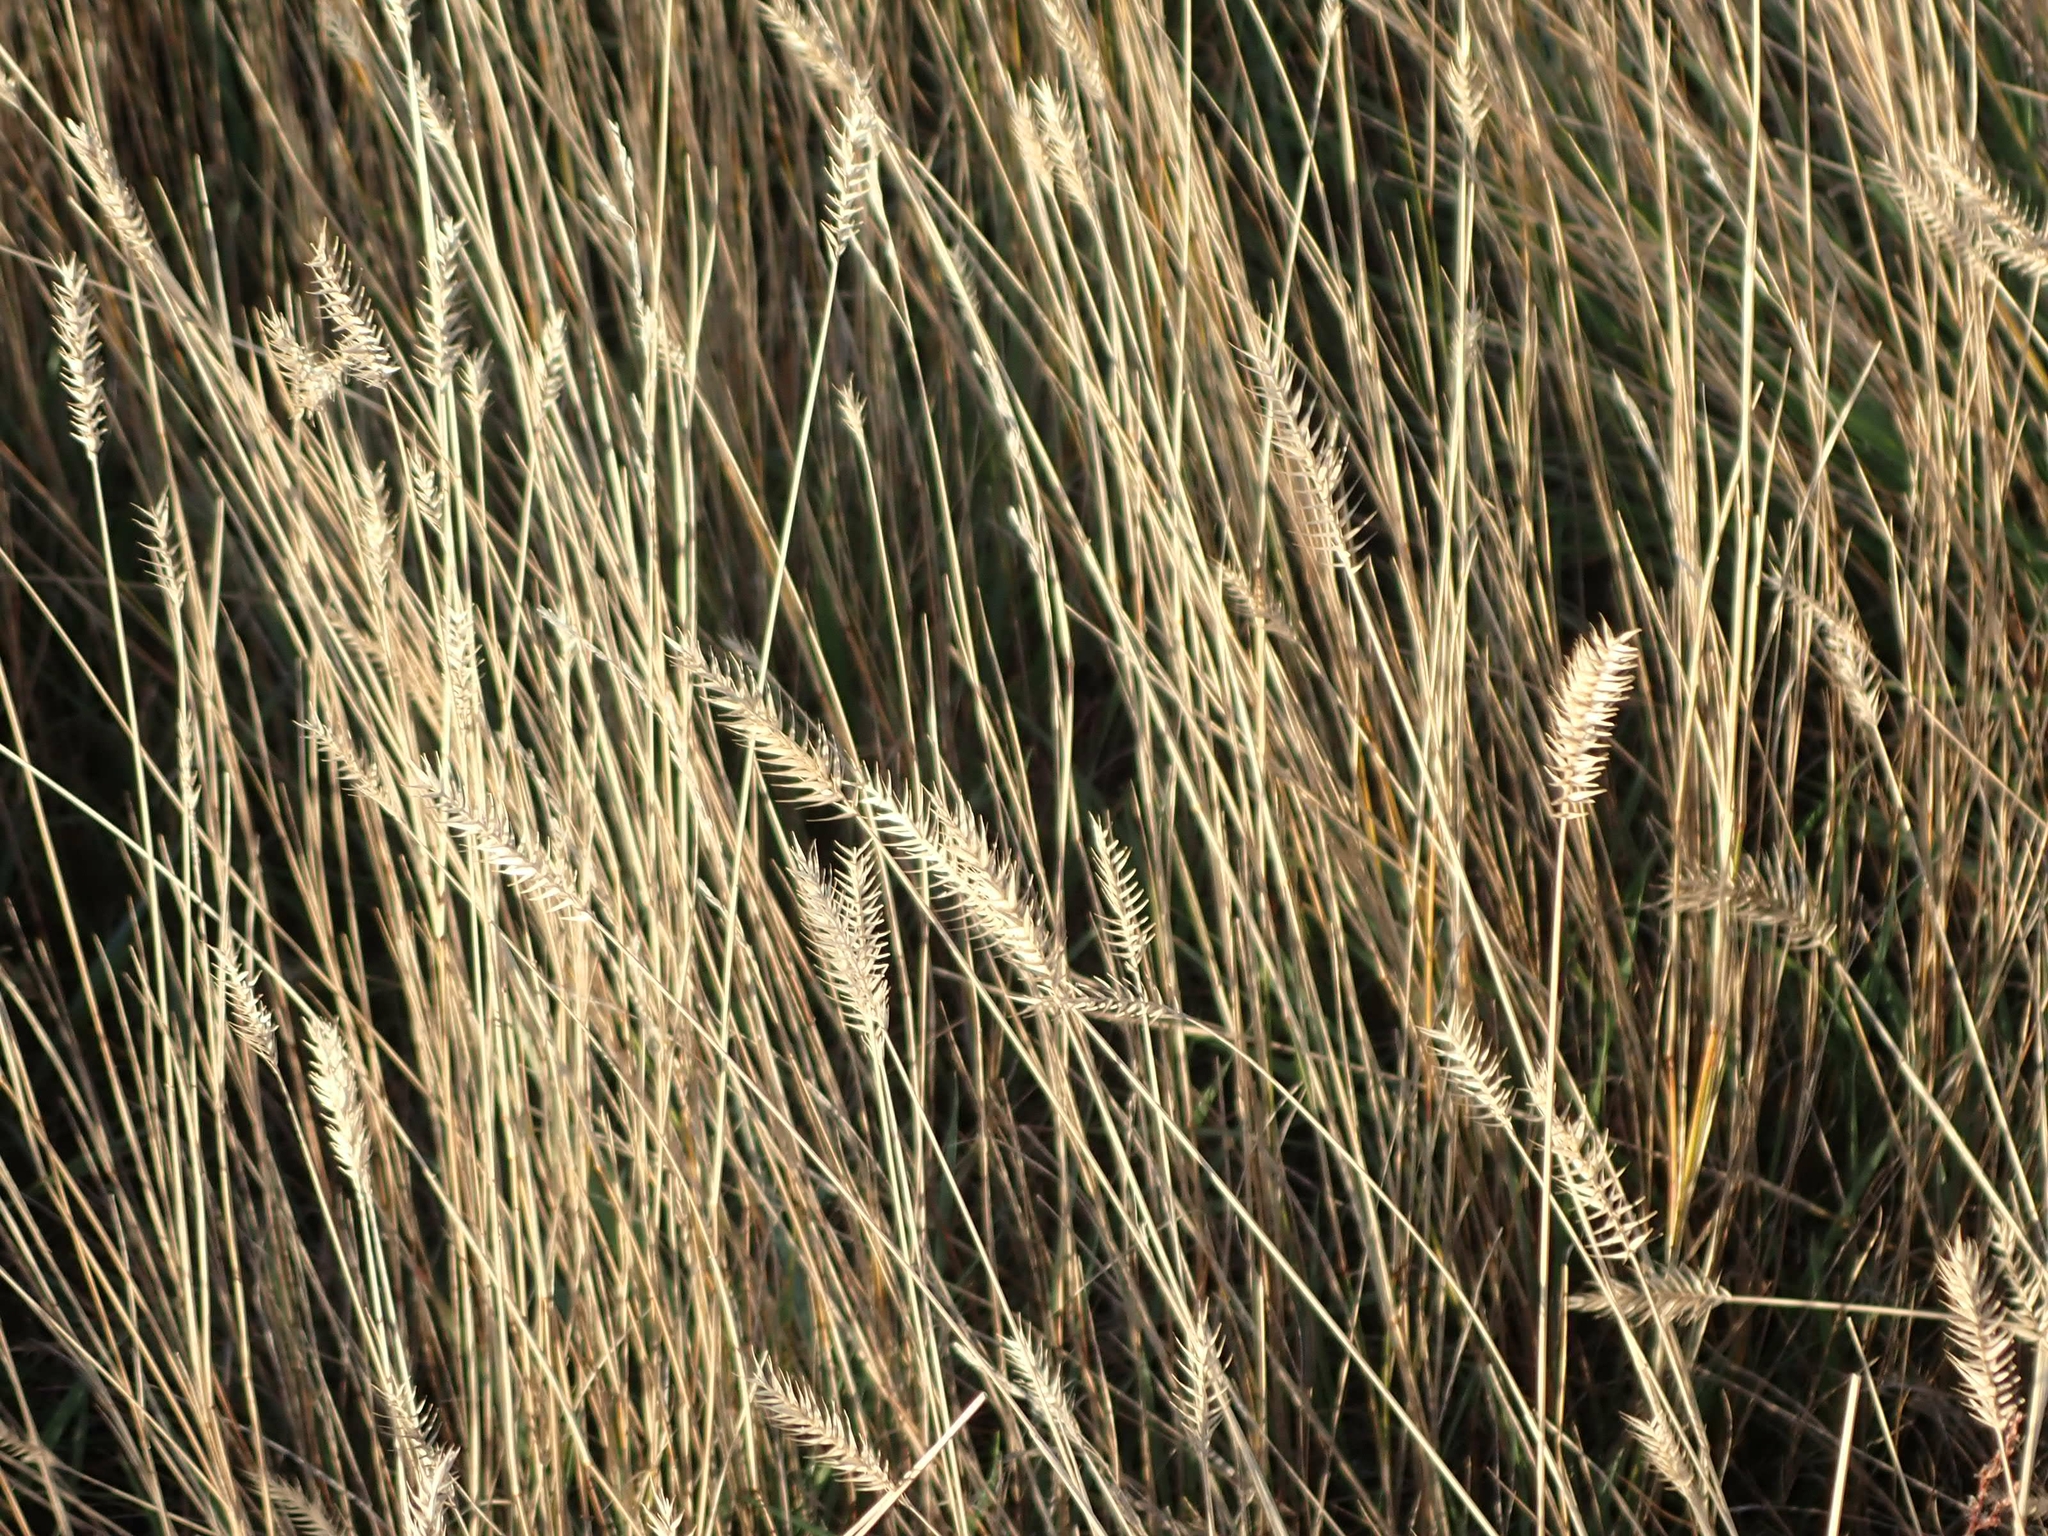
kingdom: Plantae
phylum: Tracheophyta
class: Liliopsida
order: Poales
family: Poaceae
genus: Agropyron
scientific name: Agropyron cristatum
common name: Crested wheatgrass
